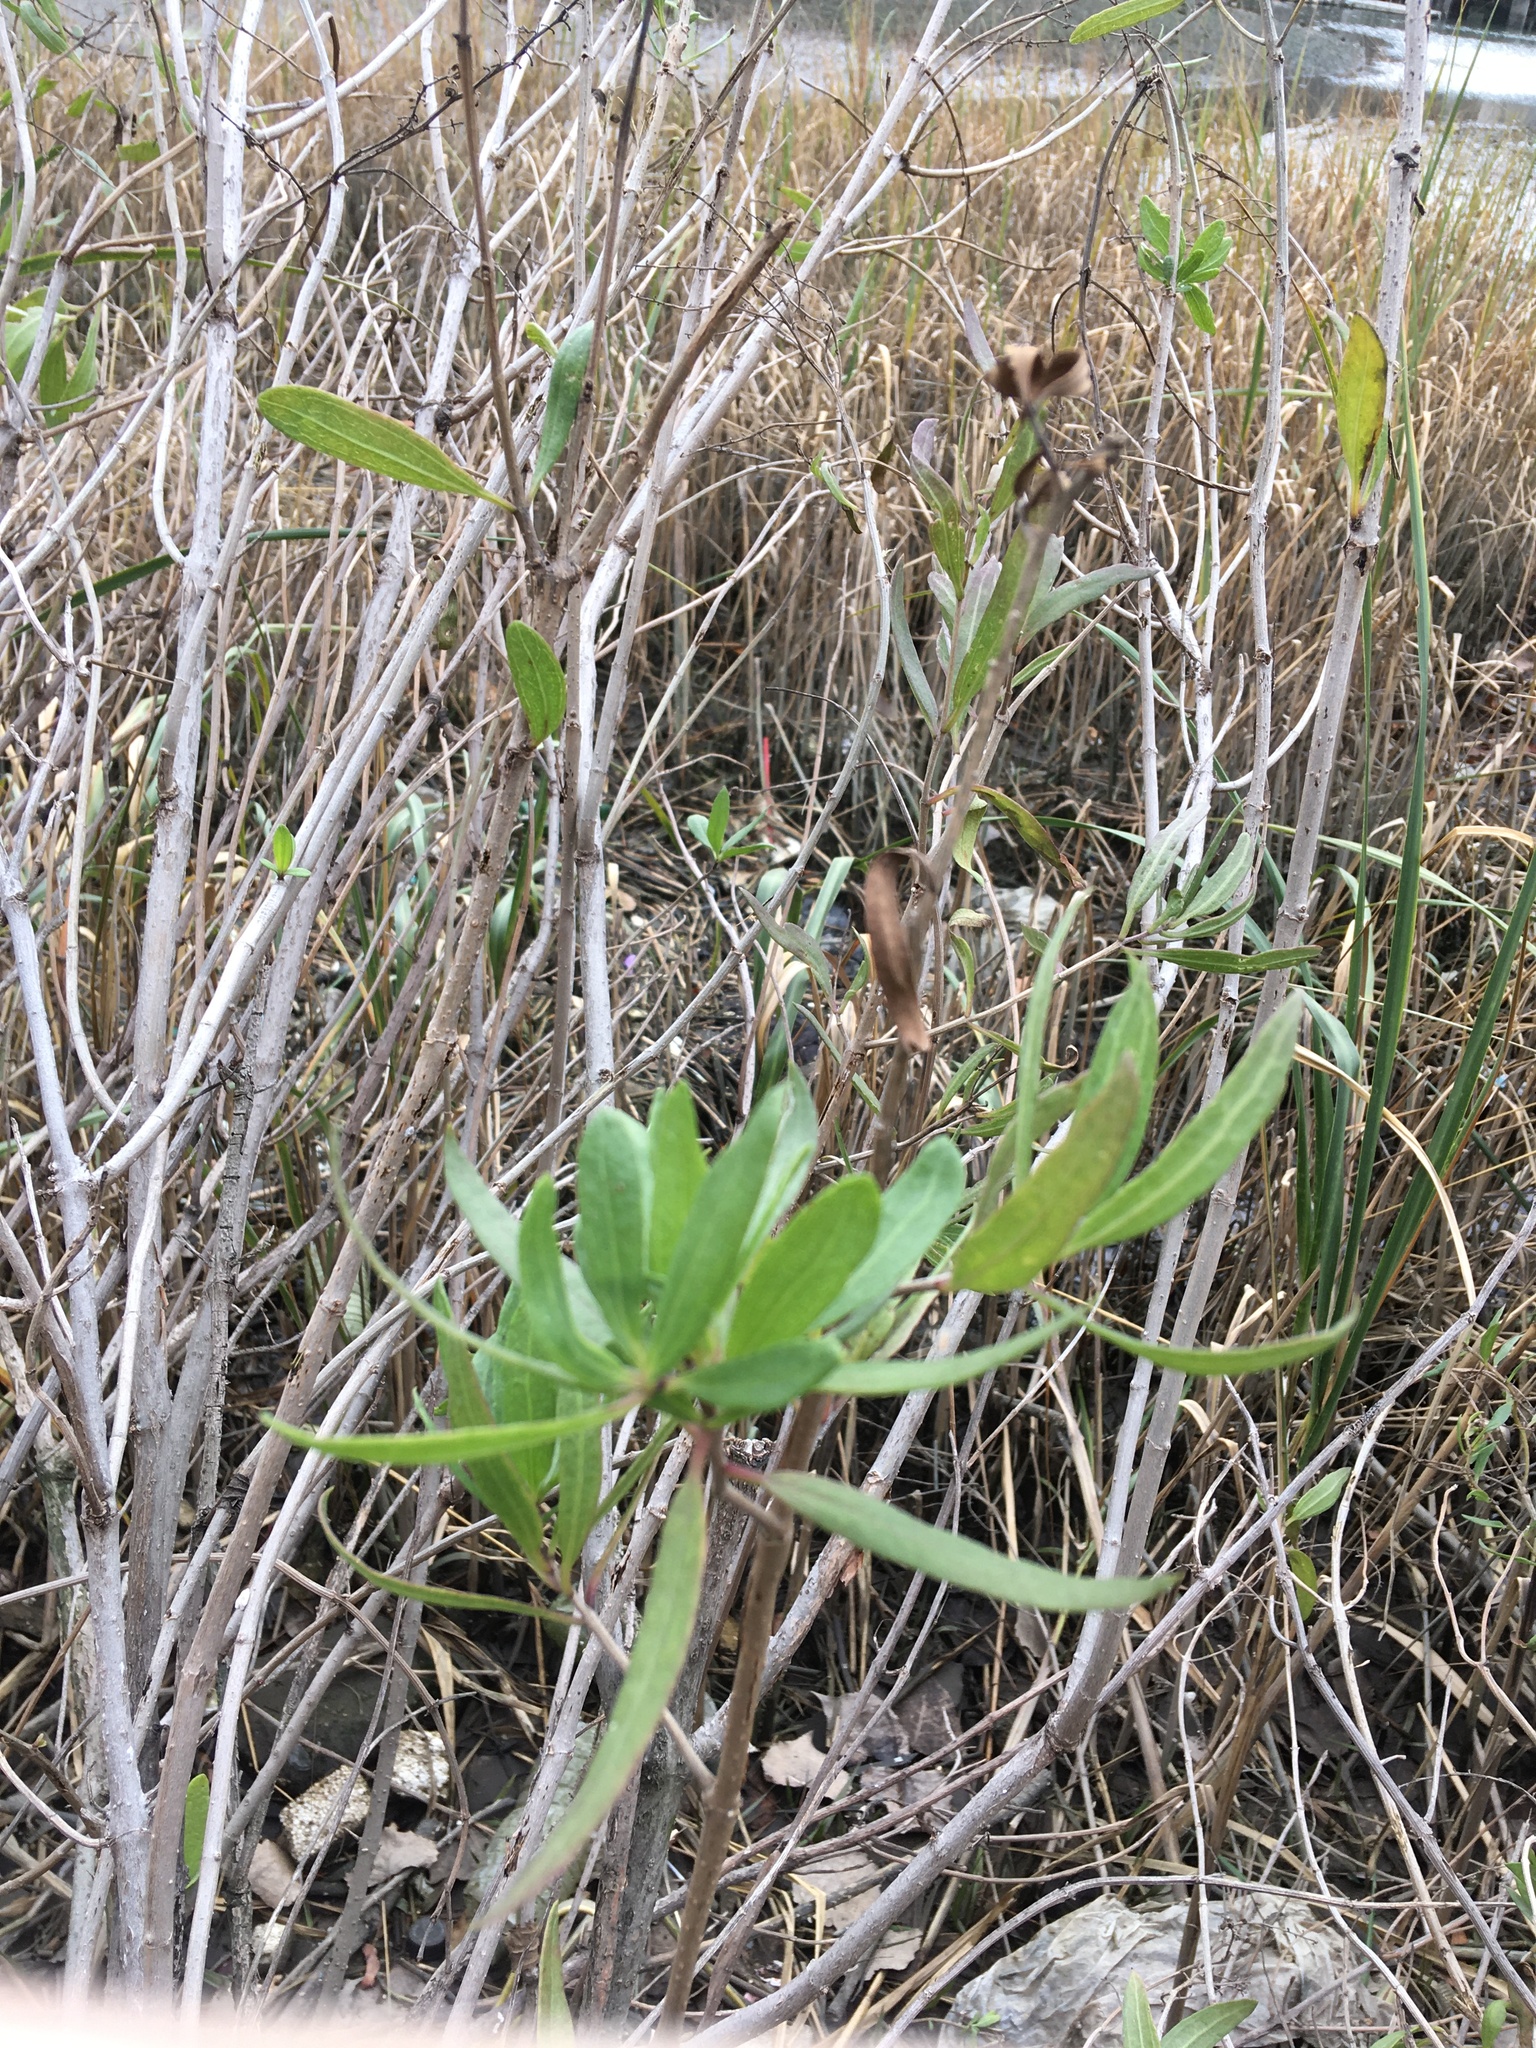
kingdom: Plantae
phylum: Tracheophyta
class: Magnoliopsida
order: Asterales
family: Asteraceae
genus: Iva
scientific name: Iva frutescens
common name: Big-leaved marsh-elder
